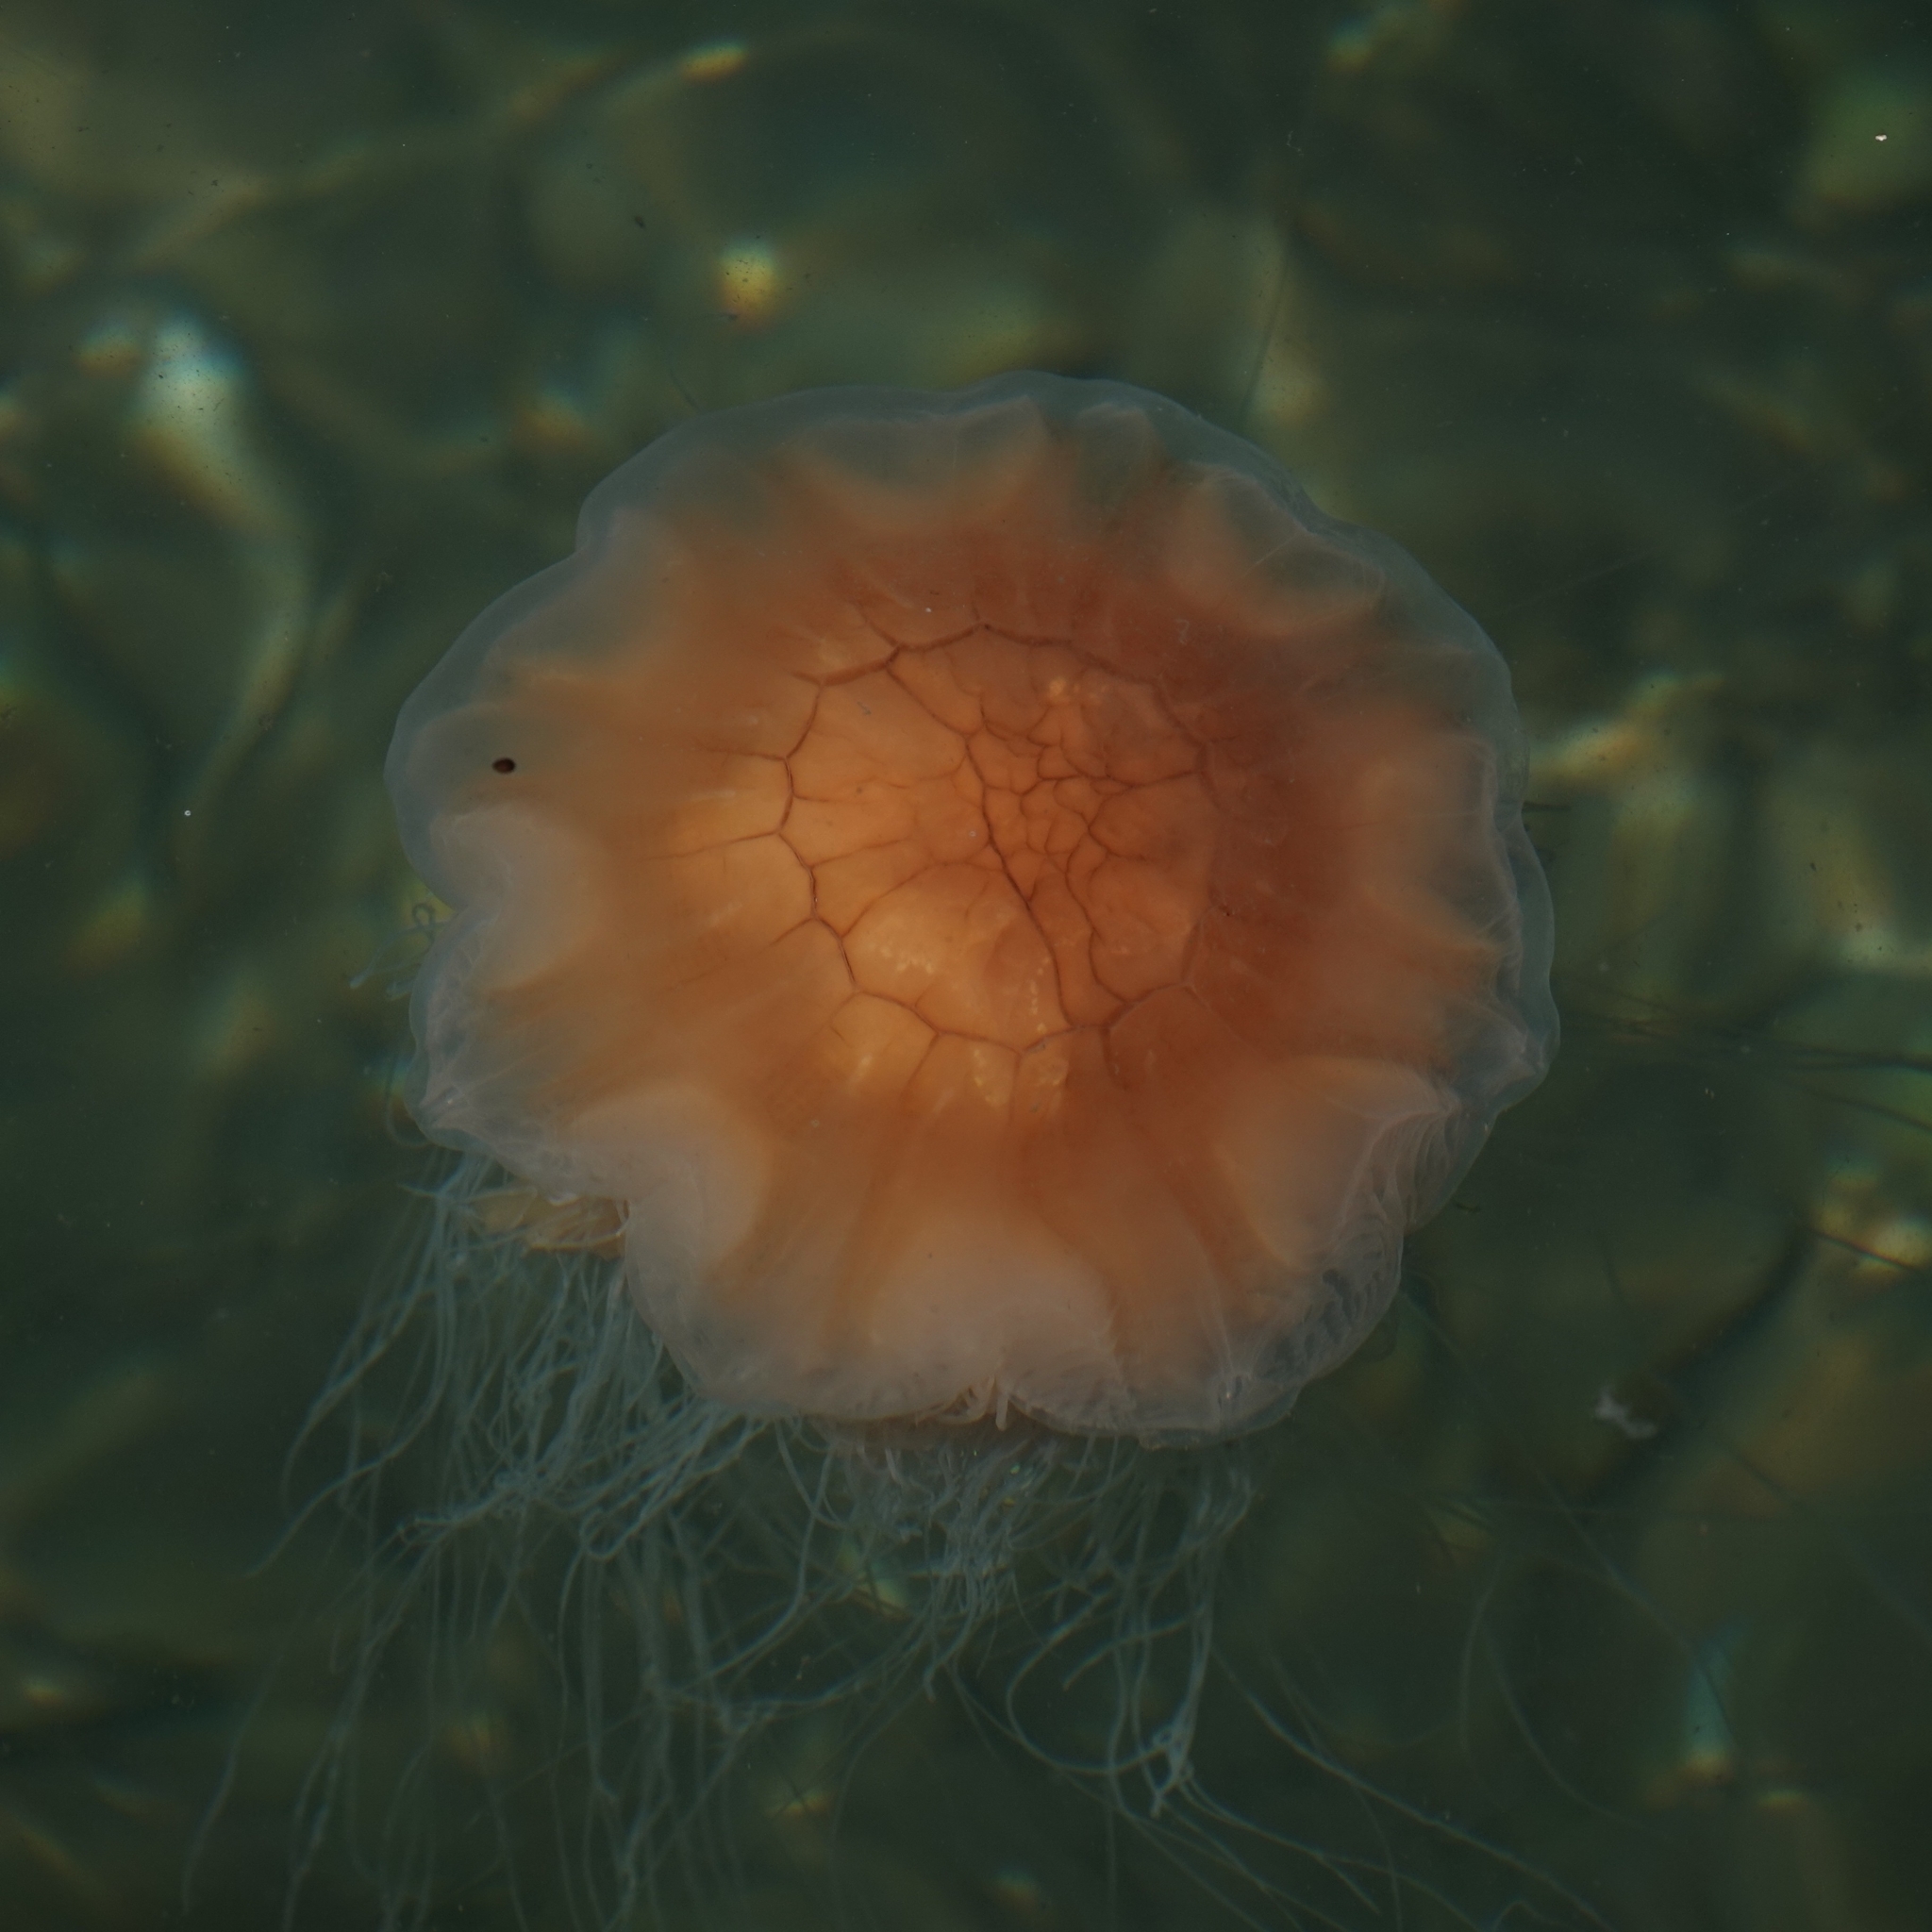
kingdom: Animalia
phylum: Cnidaria
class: Scyphozoa
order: Semaeostomeae
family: Cyaneidae
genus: Cyanea
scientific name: Cyanea capillata
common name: Lion's mane jellyfish
